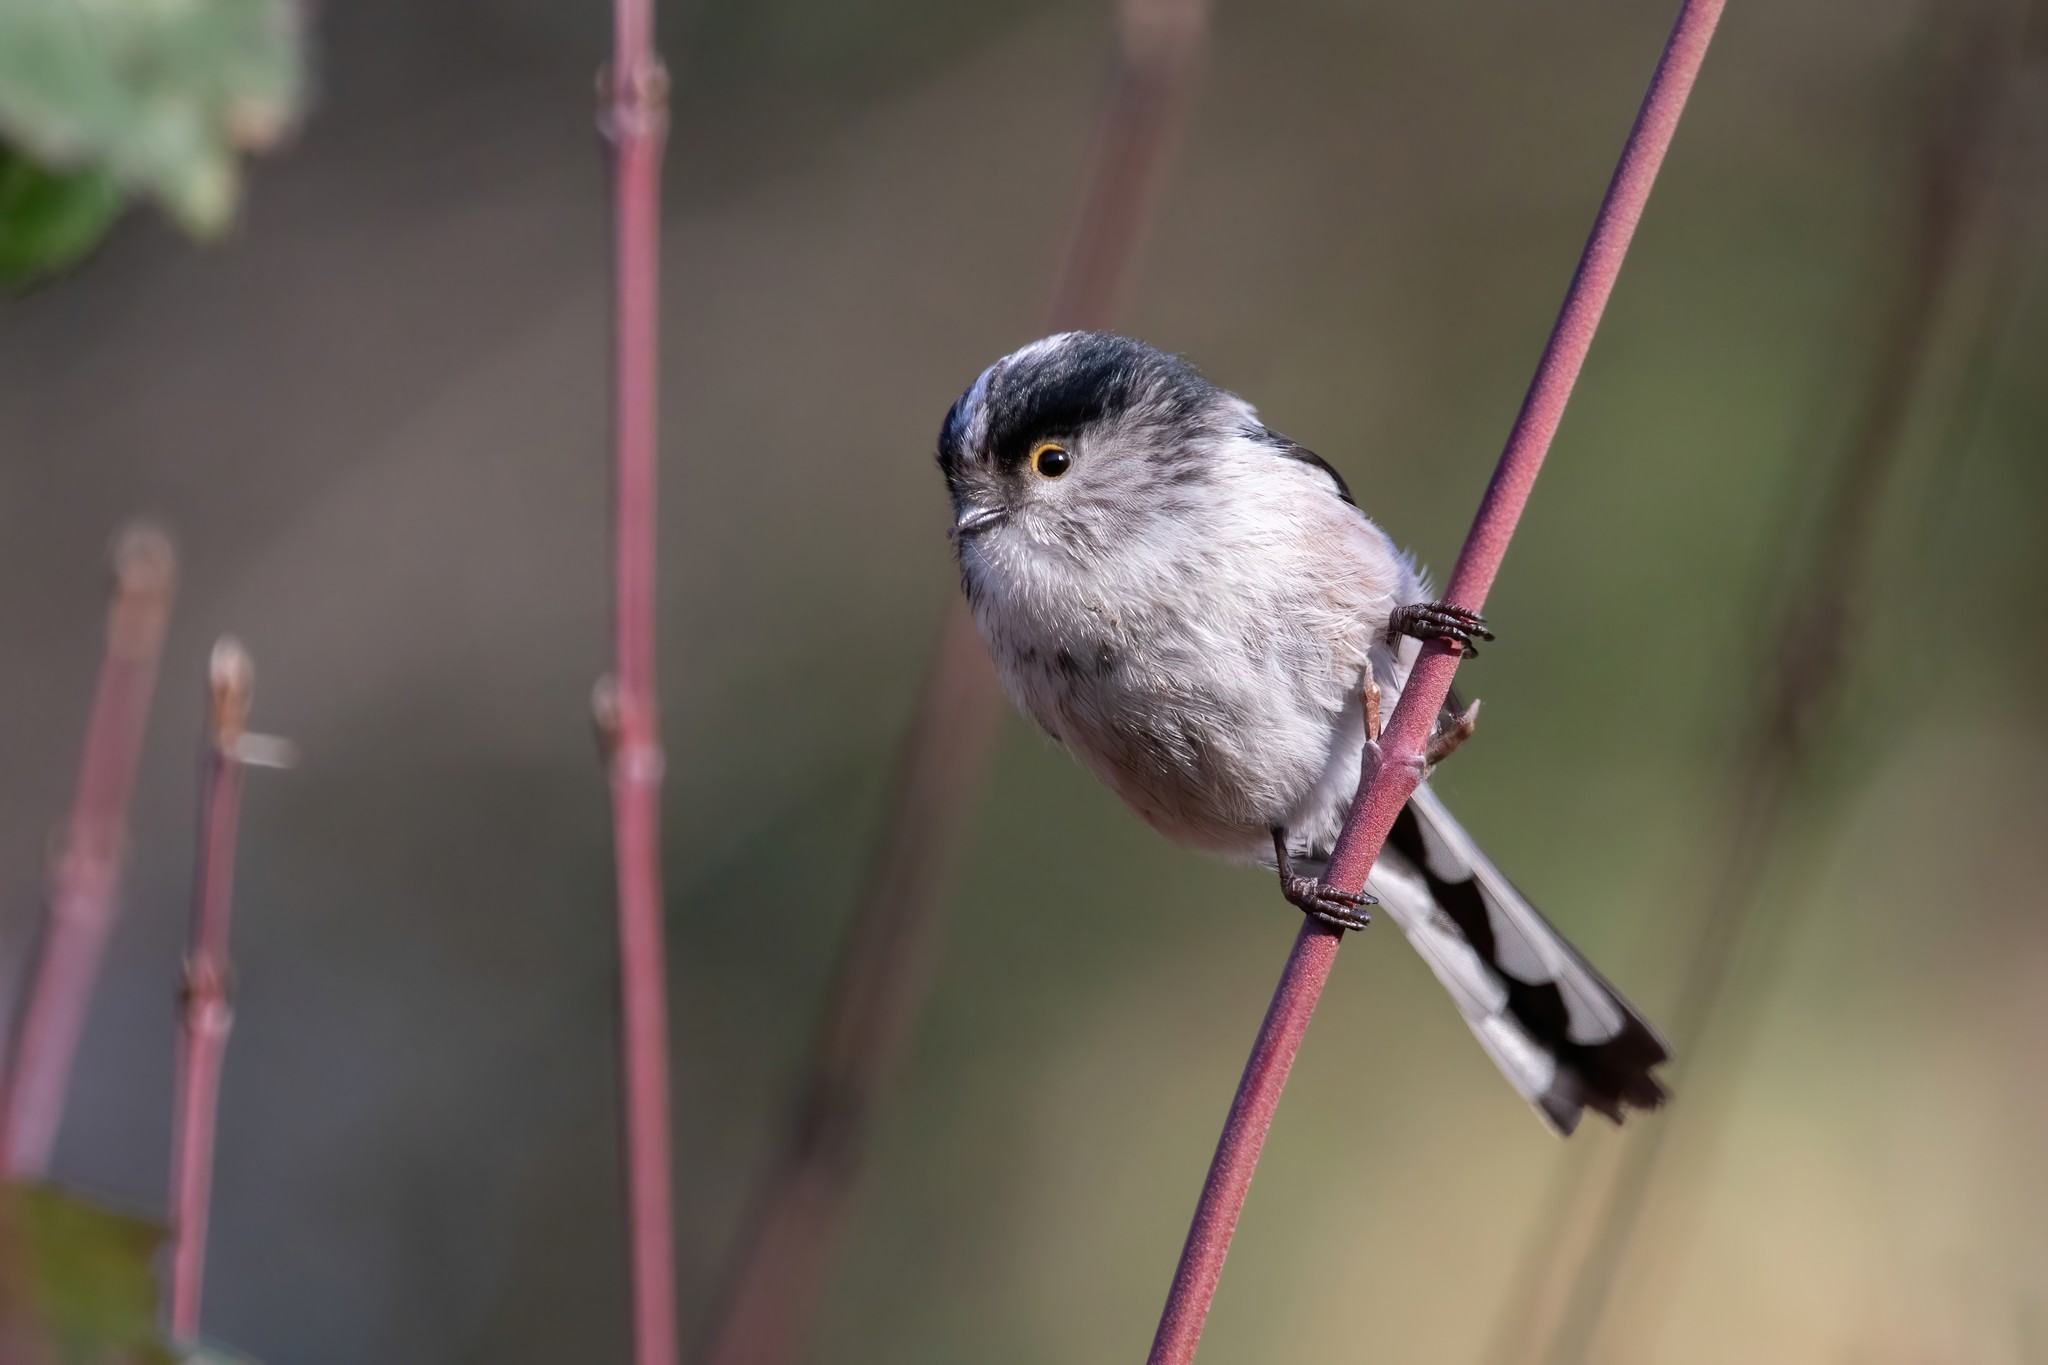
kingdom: Animalia
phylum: Chordata
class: Aves
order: Passeriformes
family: Aegithalidae
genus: Aegithalos
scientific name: Aegithalos caudatus
